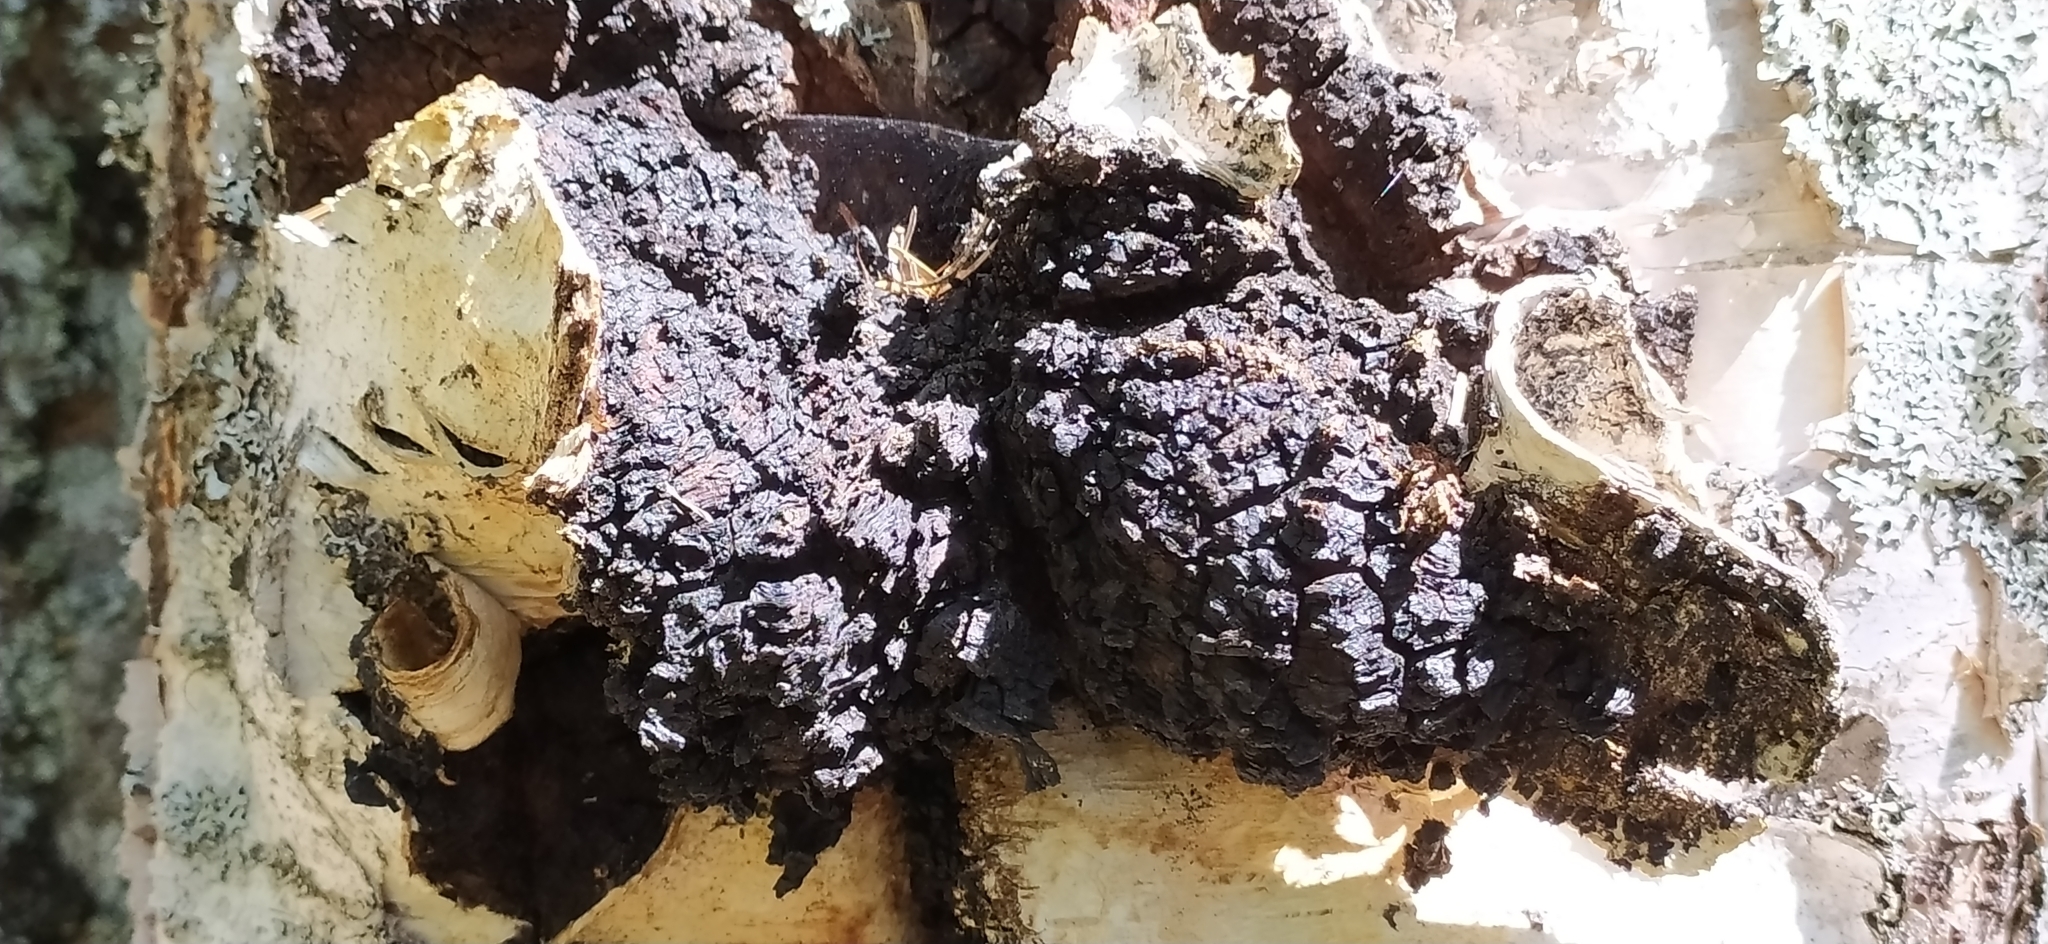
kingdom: Fungi
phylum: Basidiomycota
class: Agaricomycetes
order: Hymenochaetales
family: Hymenochaetaceae
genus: Inonotus
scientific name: Inonotus obliquus
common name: Chaga
